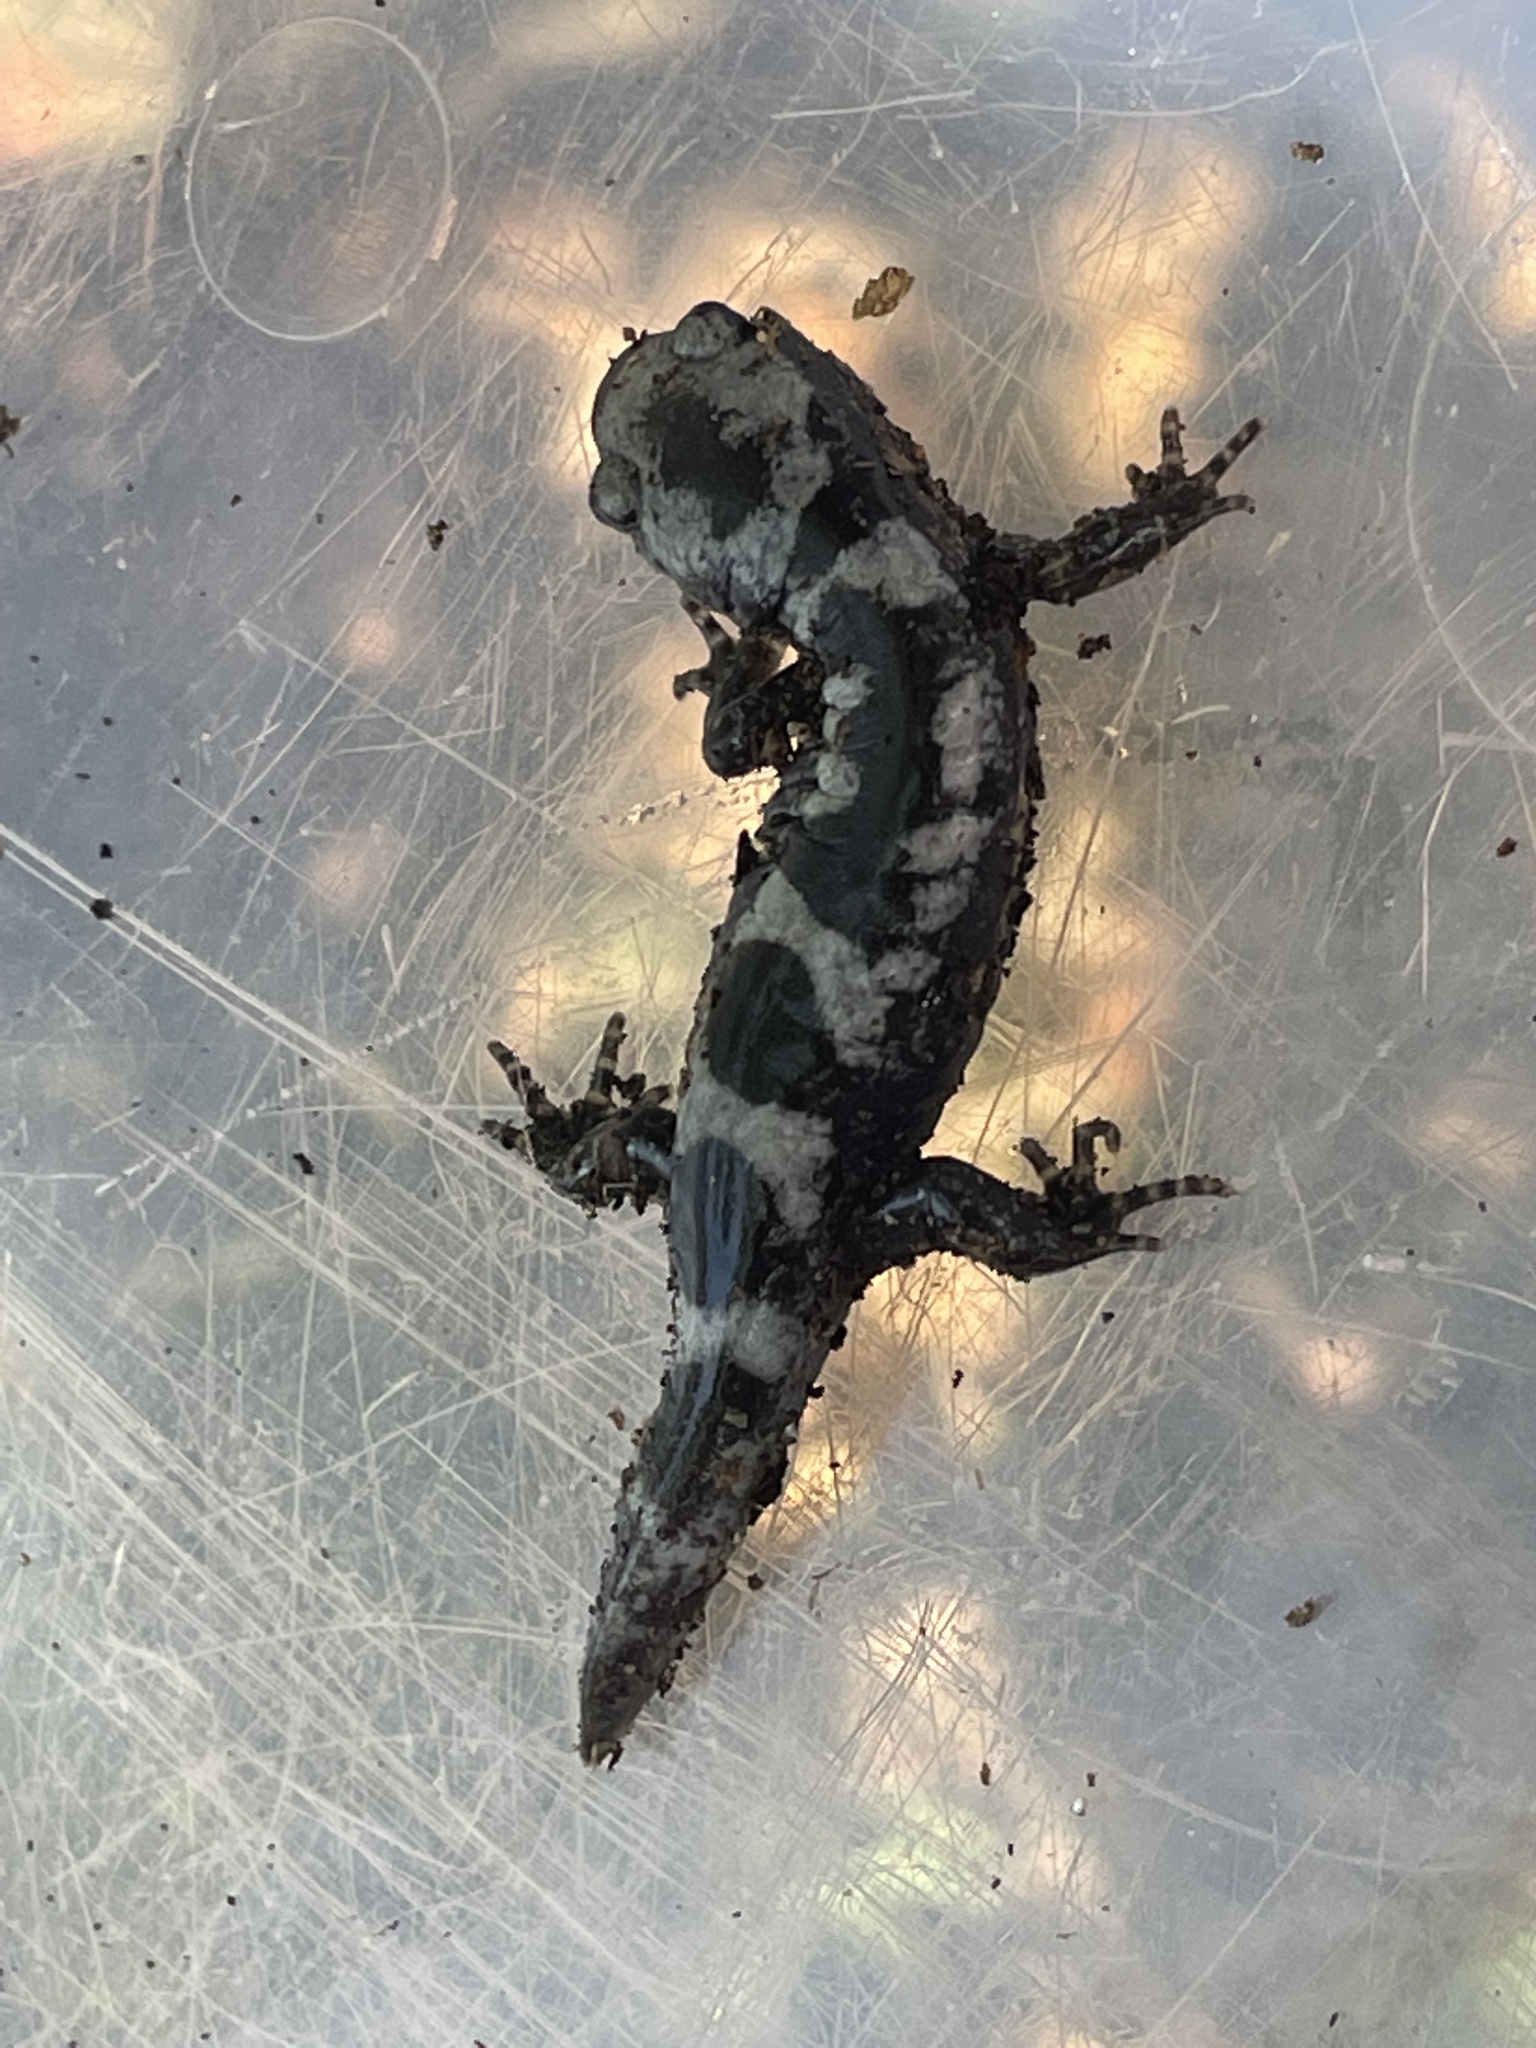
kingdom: Animalia
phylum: Chordata
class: Amphibia
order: Caudata
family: Ambystomatidae
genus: Ambystoma
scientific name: Ambystoma opacum
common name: Marbled salamander
